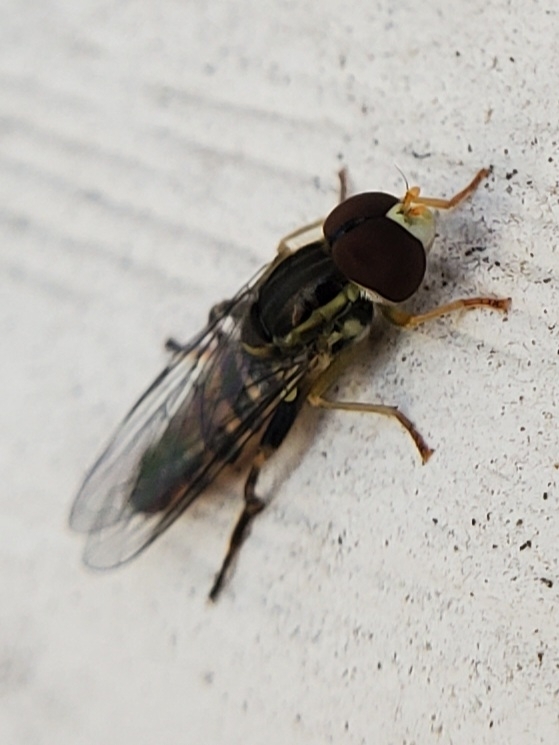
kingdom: Animalia
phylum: Arthropoda
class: Insecta
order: Diptera
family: Syrphidae
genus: Toxomerus
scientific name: Toxomerus geminatus
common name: Eastern calligrapher
